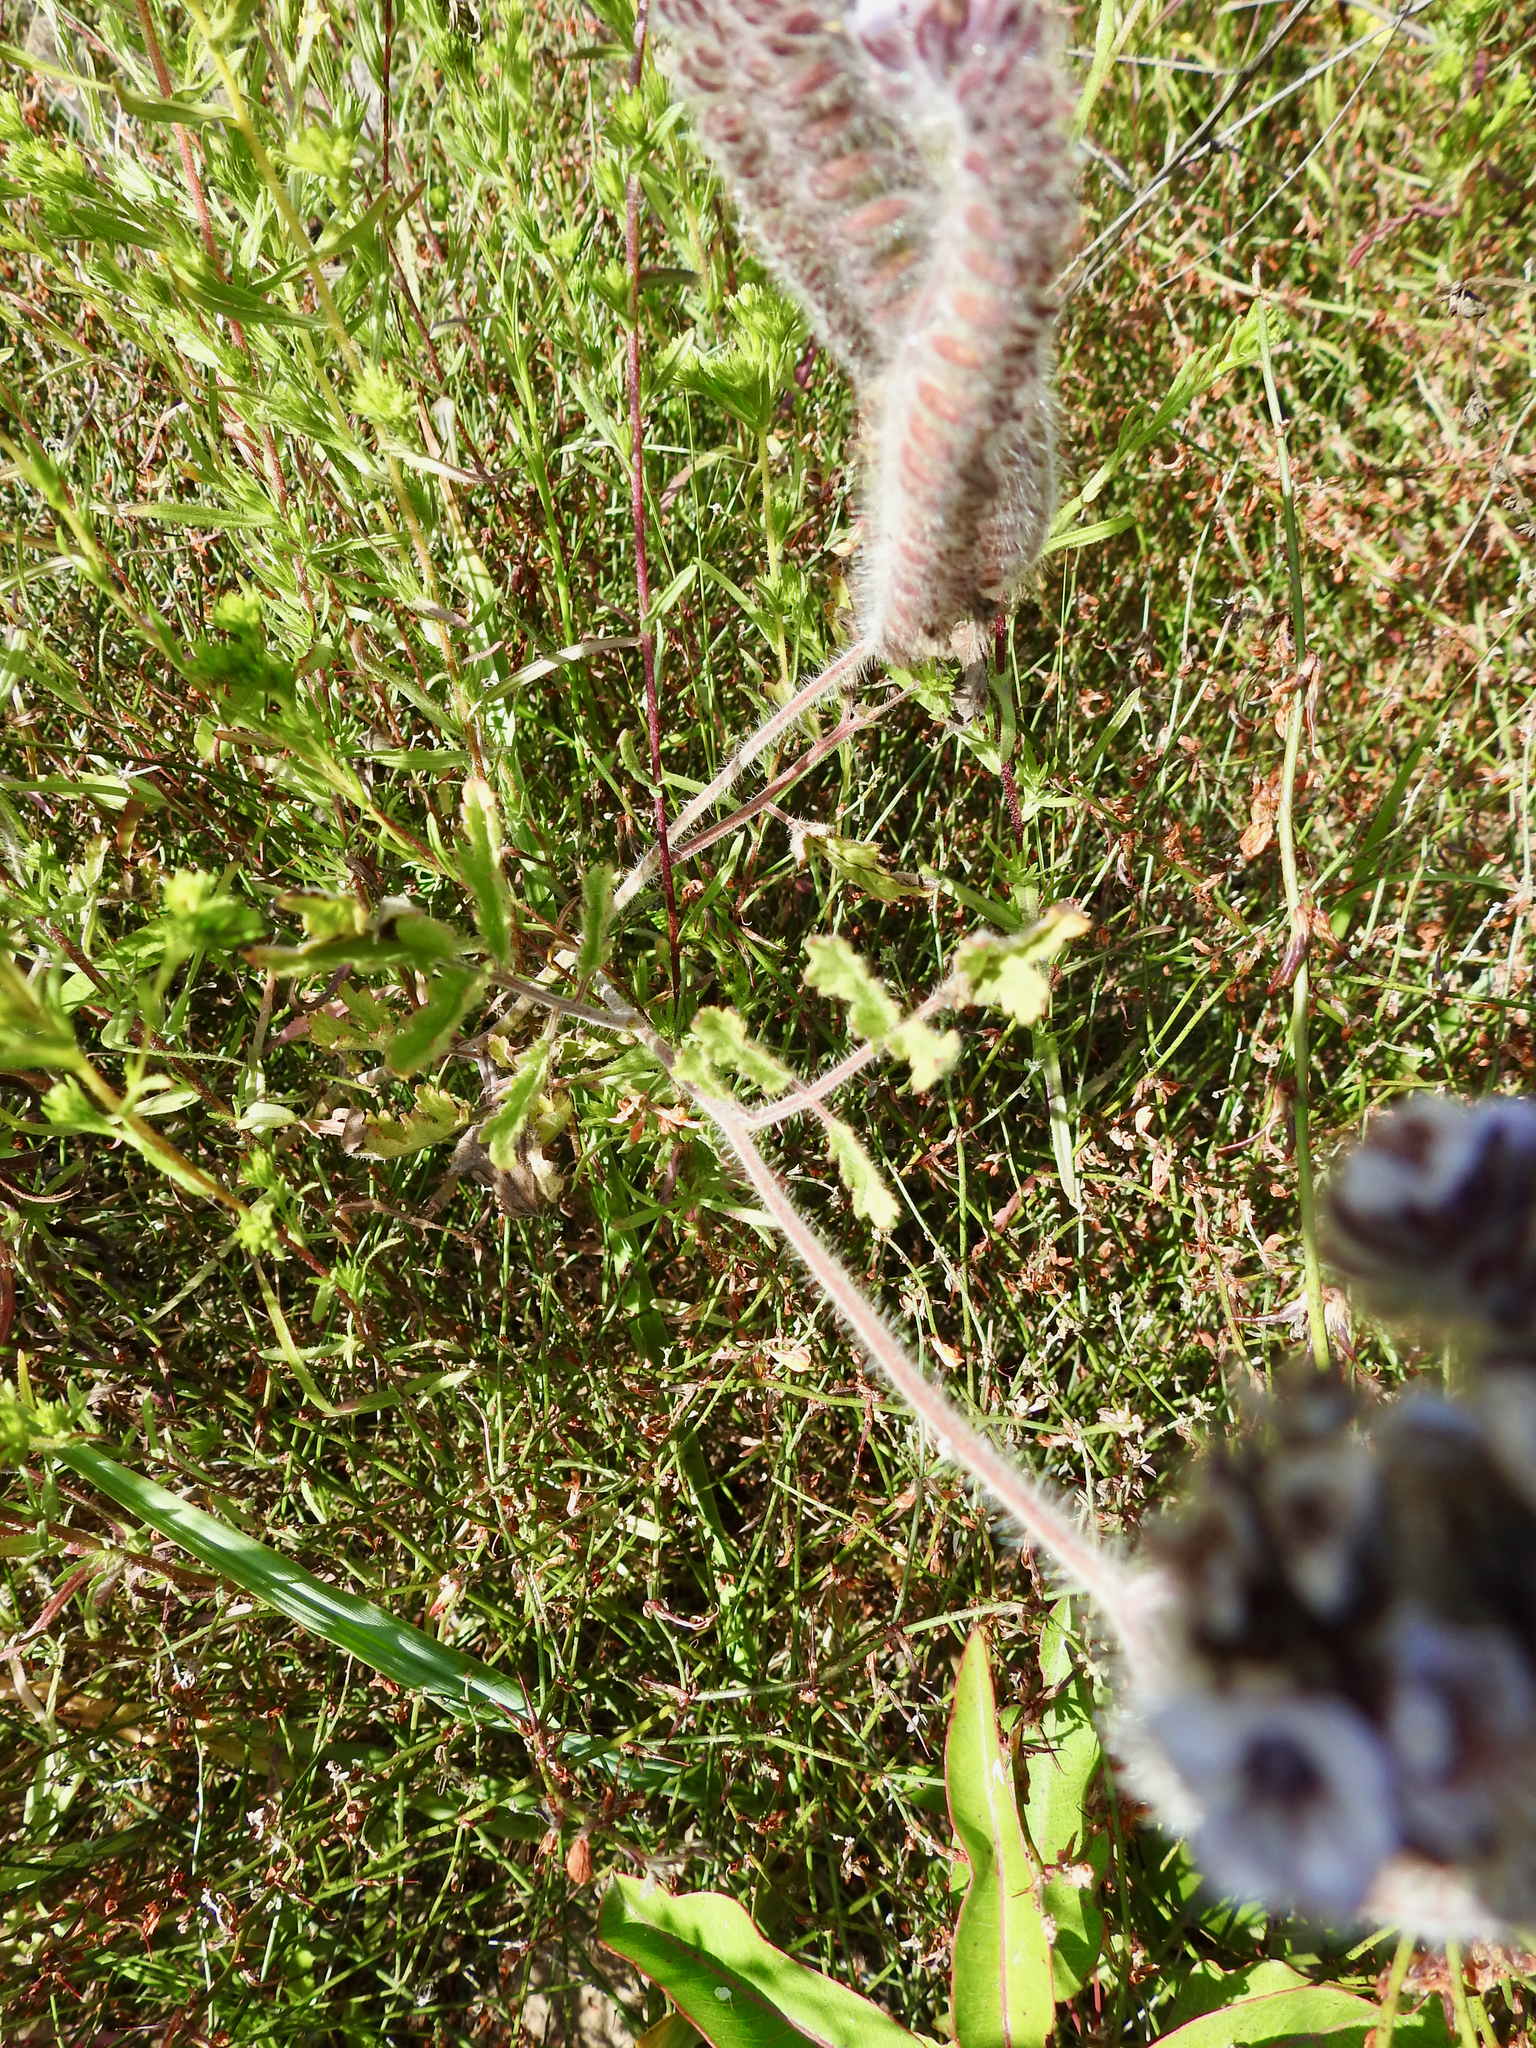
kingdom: Plantae
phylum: Tracheophyta
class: Magnoliopsida
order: Boraginales
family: Hydrophyllaceae
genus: Phacelia
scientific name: Phacelia hubbyi
